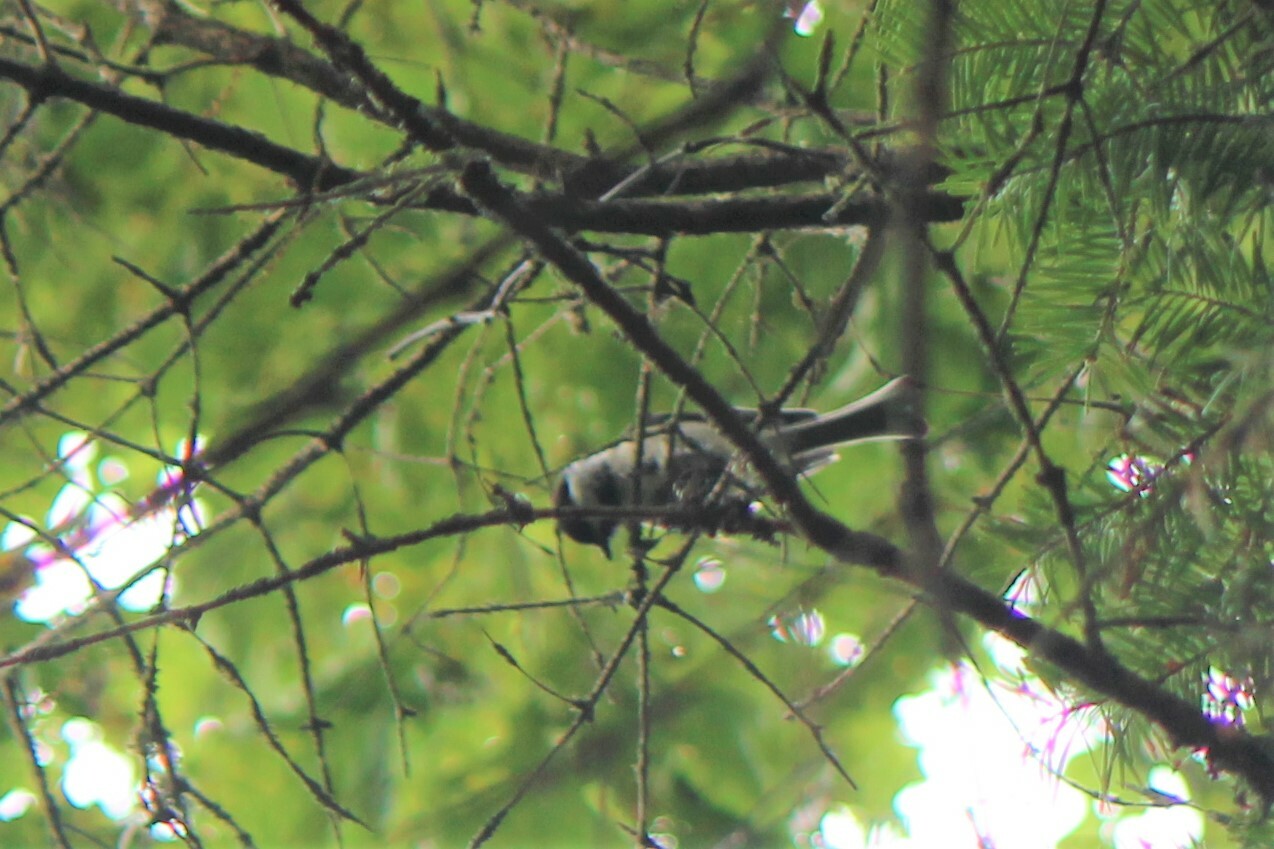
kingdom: Animalia
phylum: Chordata
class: Aves
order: Passeriformes
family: Paridae
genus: Poecile
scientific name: Poecile atricapillus
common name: Black-capped chickadee
